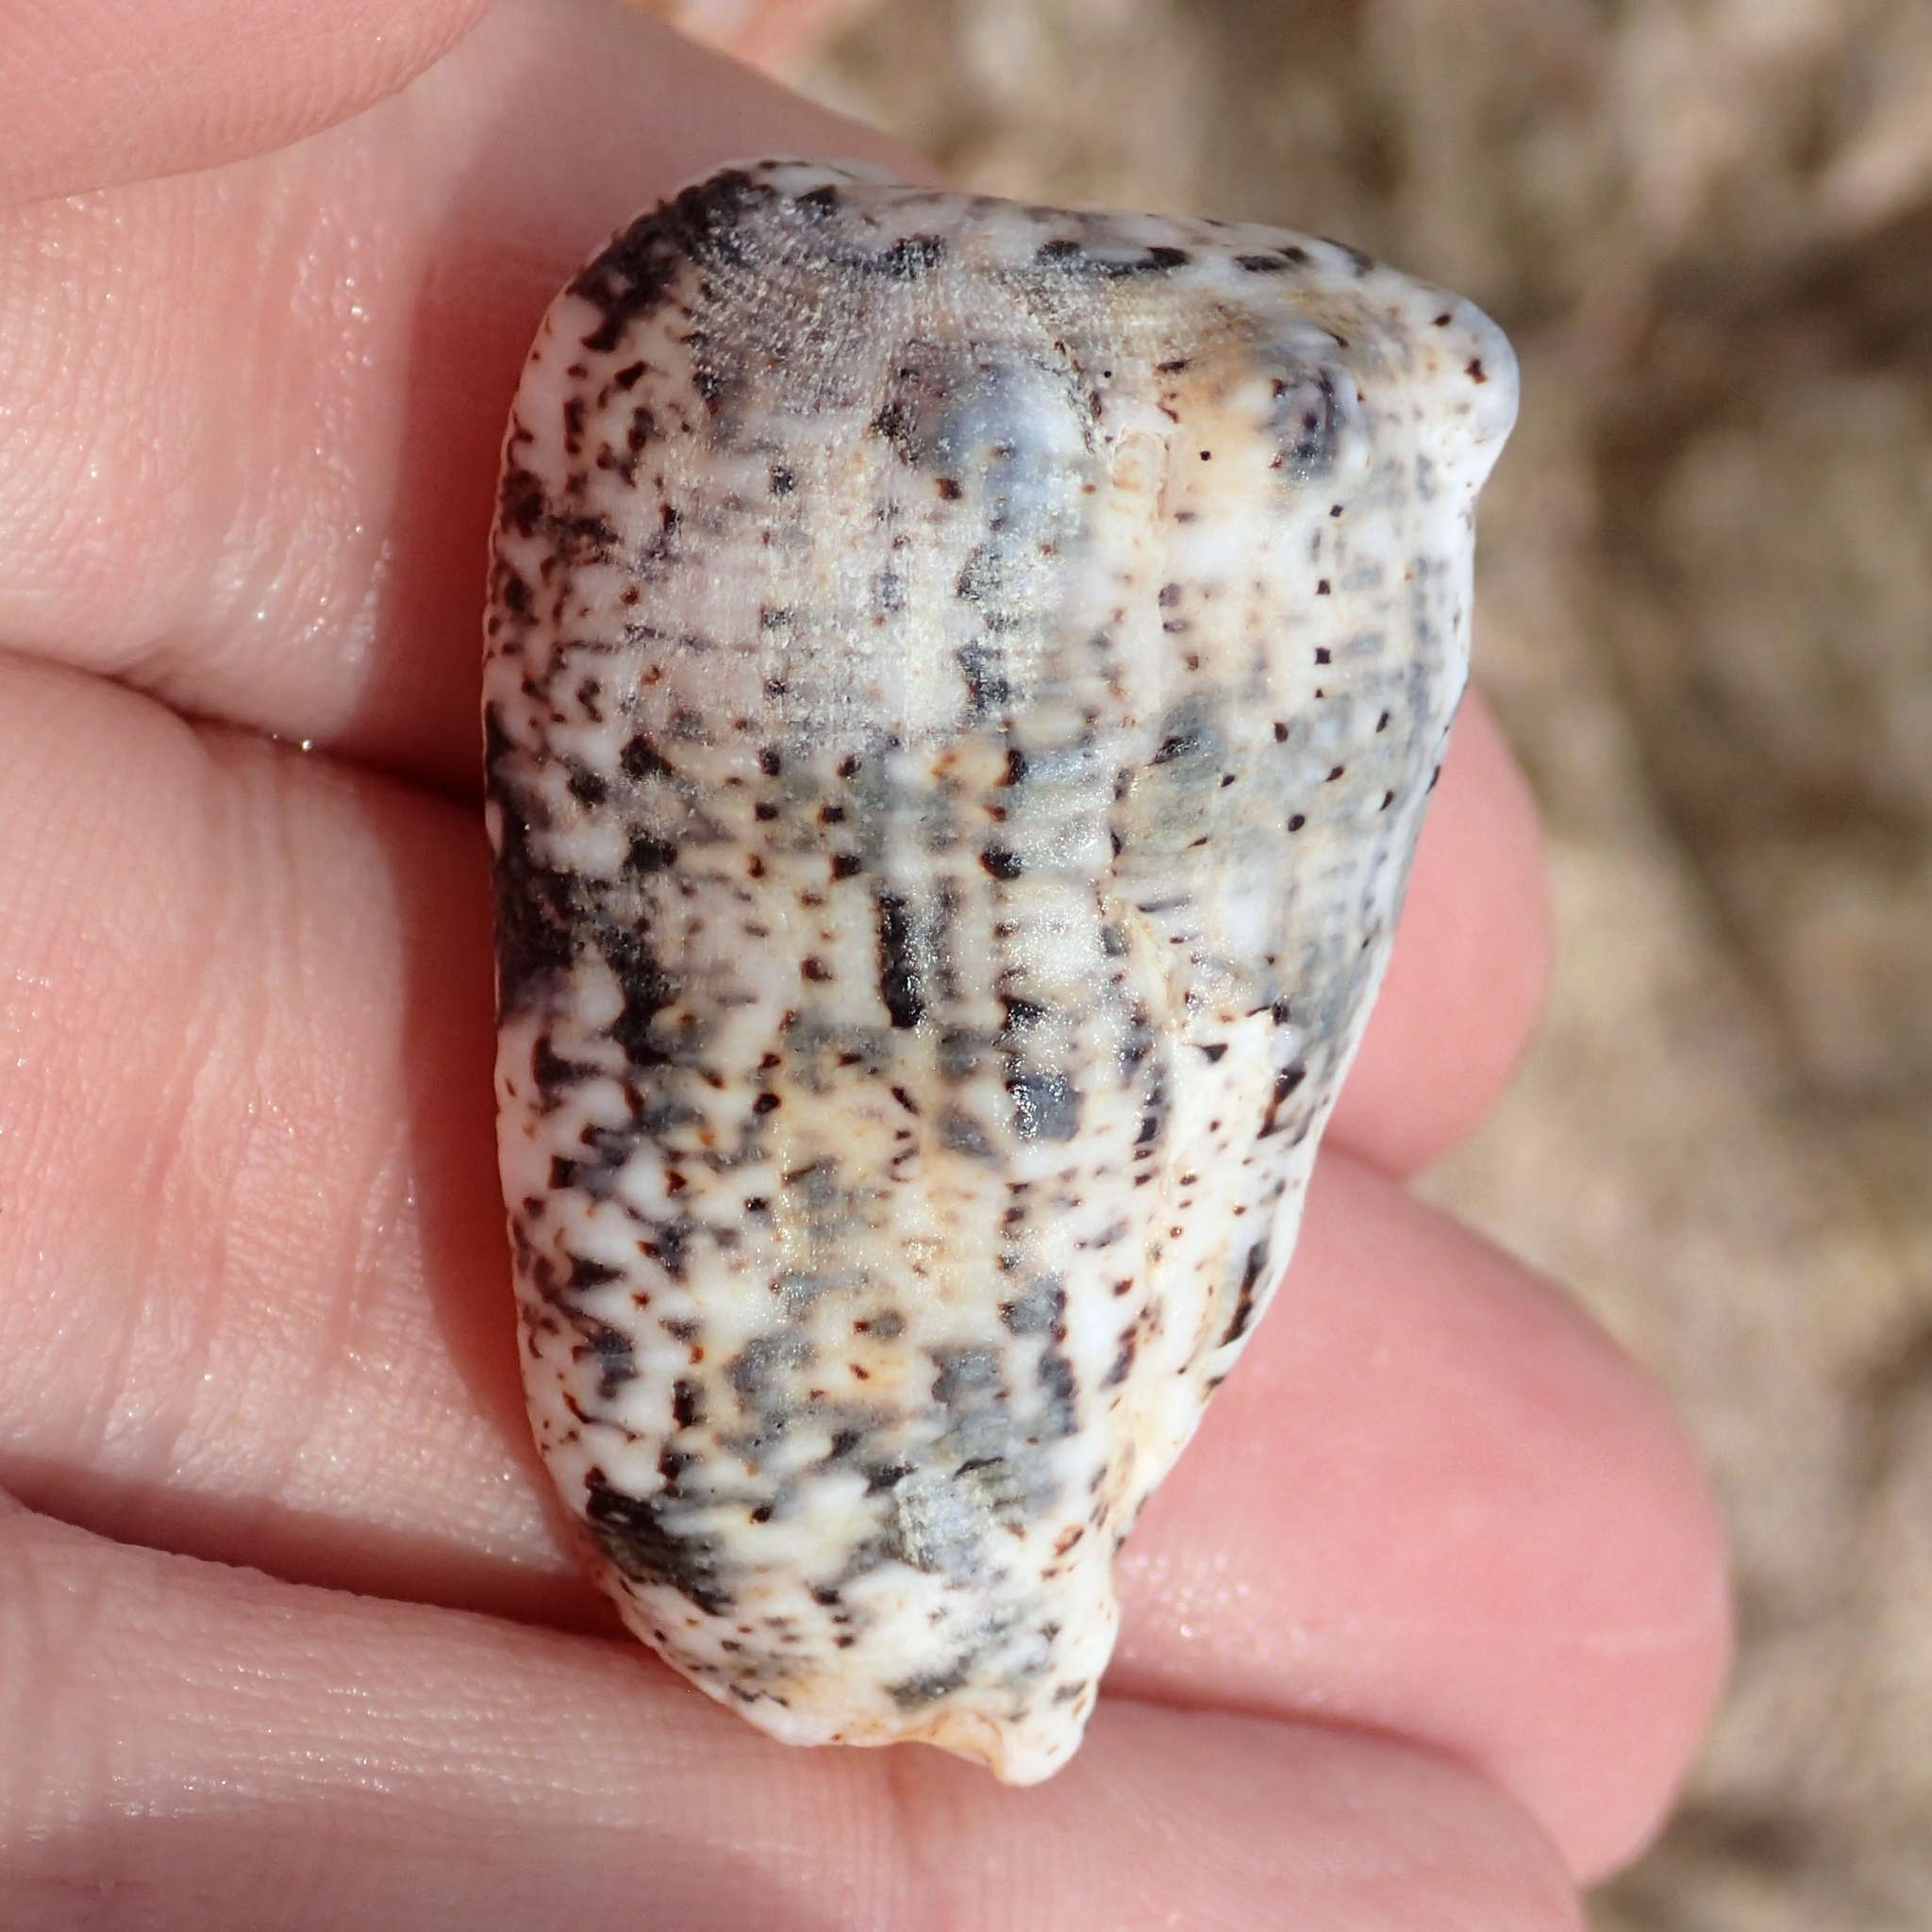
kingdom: Animalia
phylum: Mollusca
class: Gastropoda
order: Neogastropoda
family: Harpidae
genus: Morum
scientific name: Morum tuberculosum
